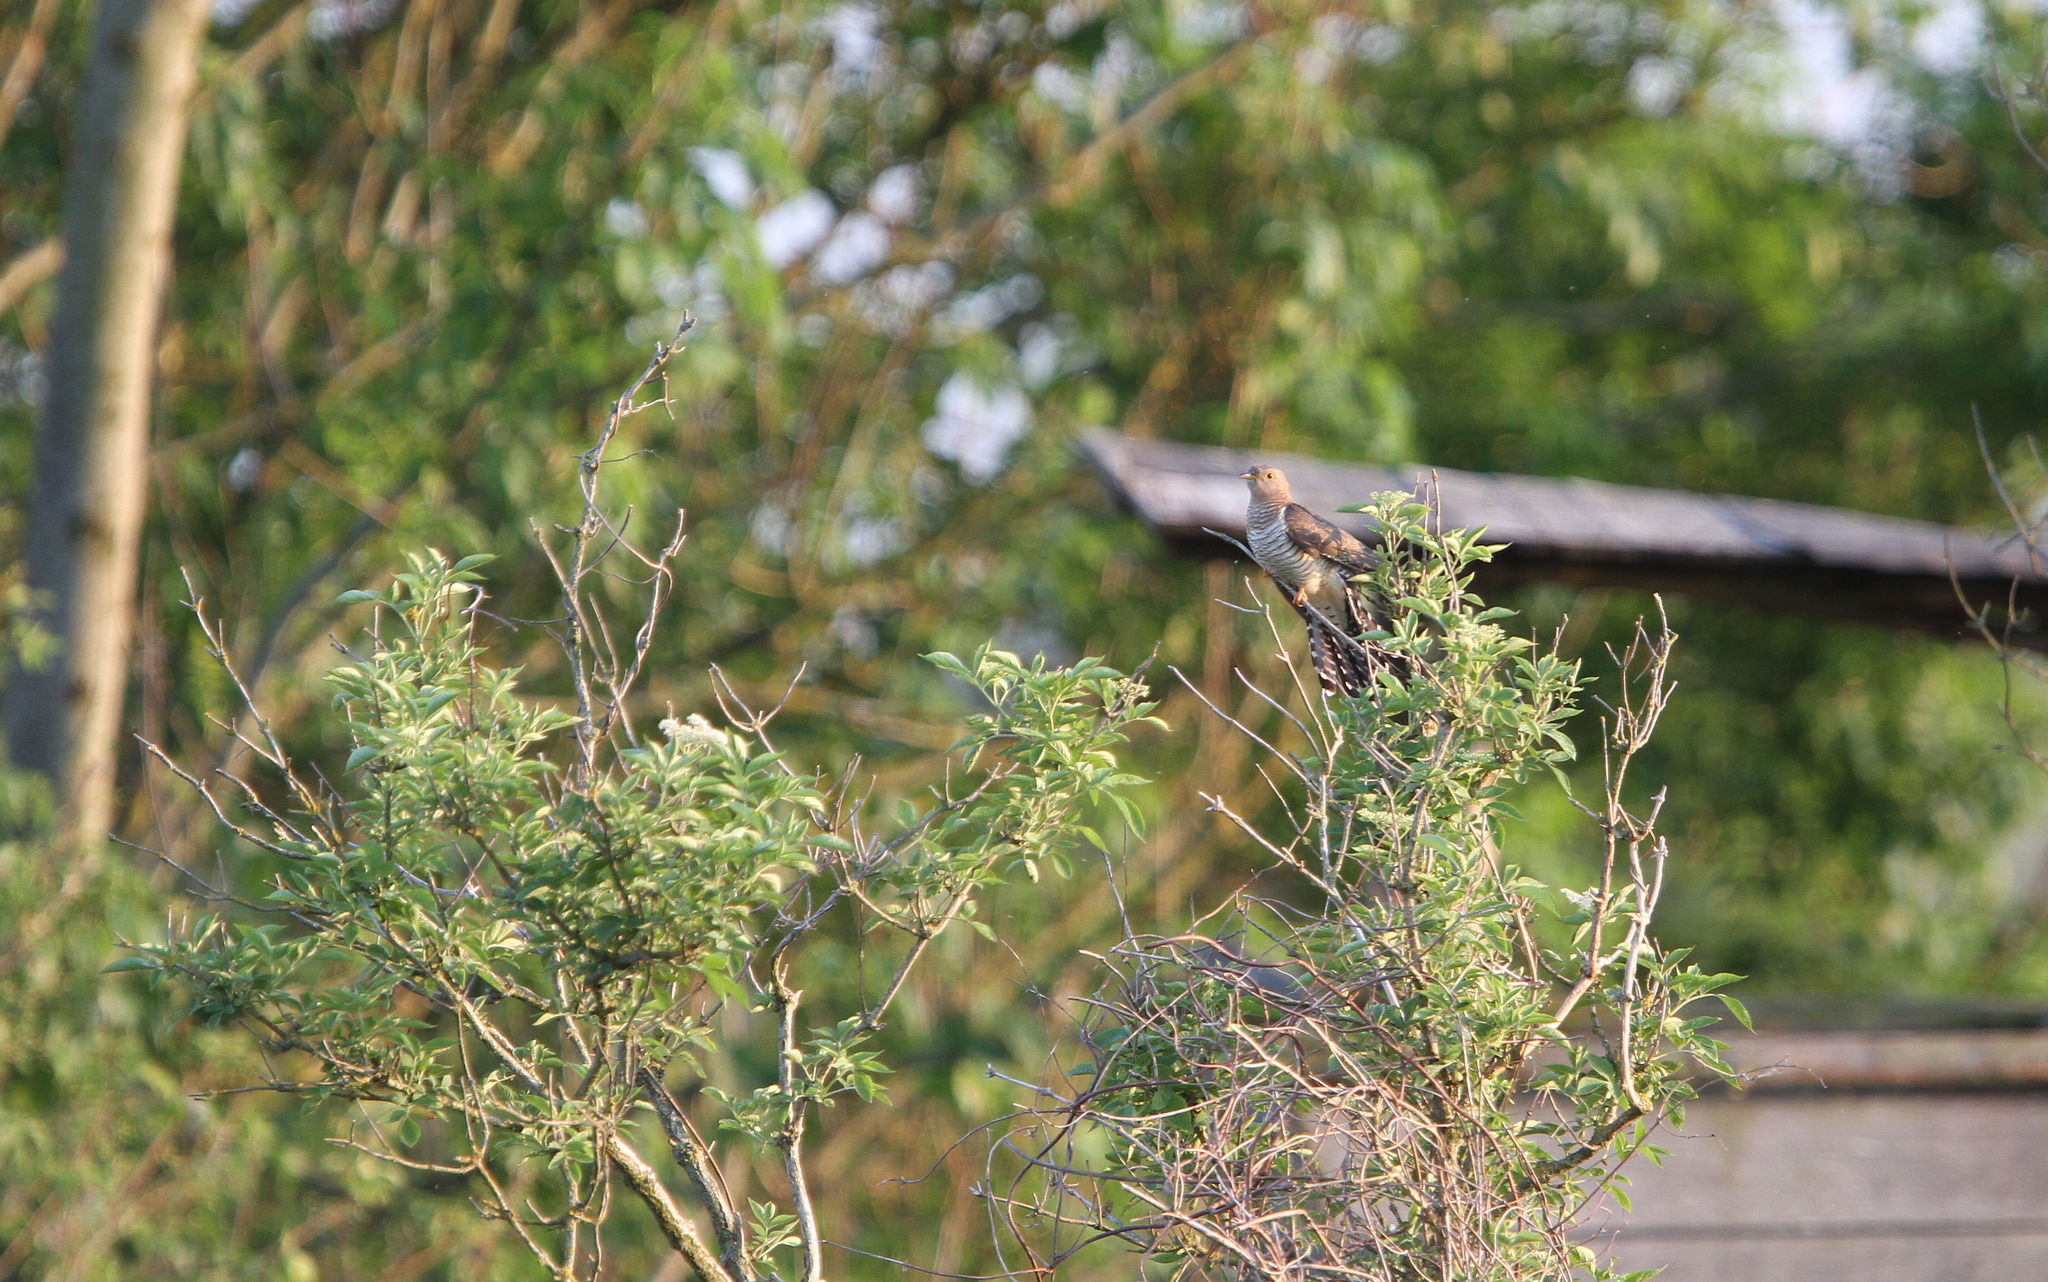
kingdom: Animalia
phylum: Chordata
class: Aves
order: Cuculiformes
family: Cuculidae
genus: Cuculus
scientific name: Cuculus canorus
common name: Common cuckoo
